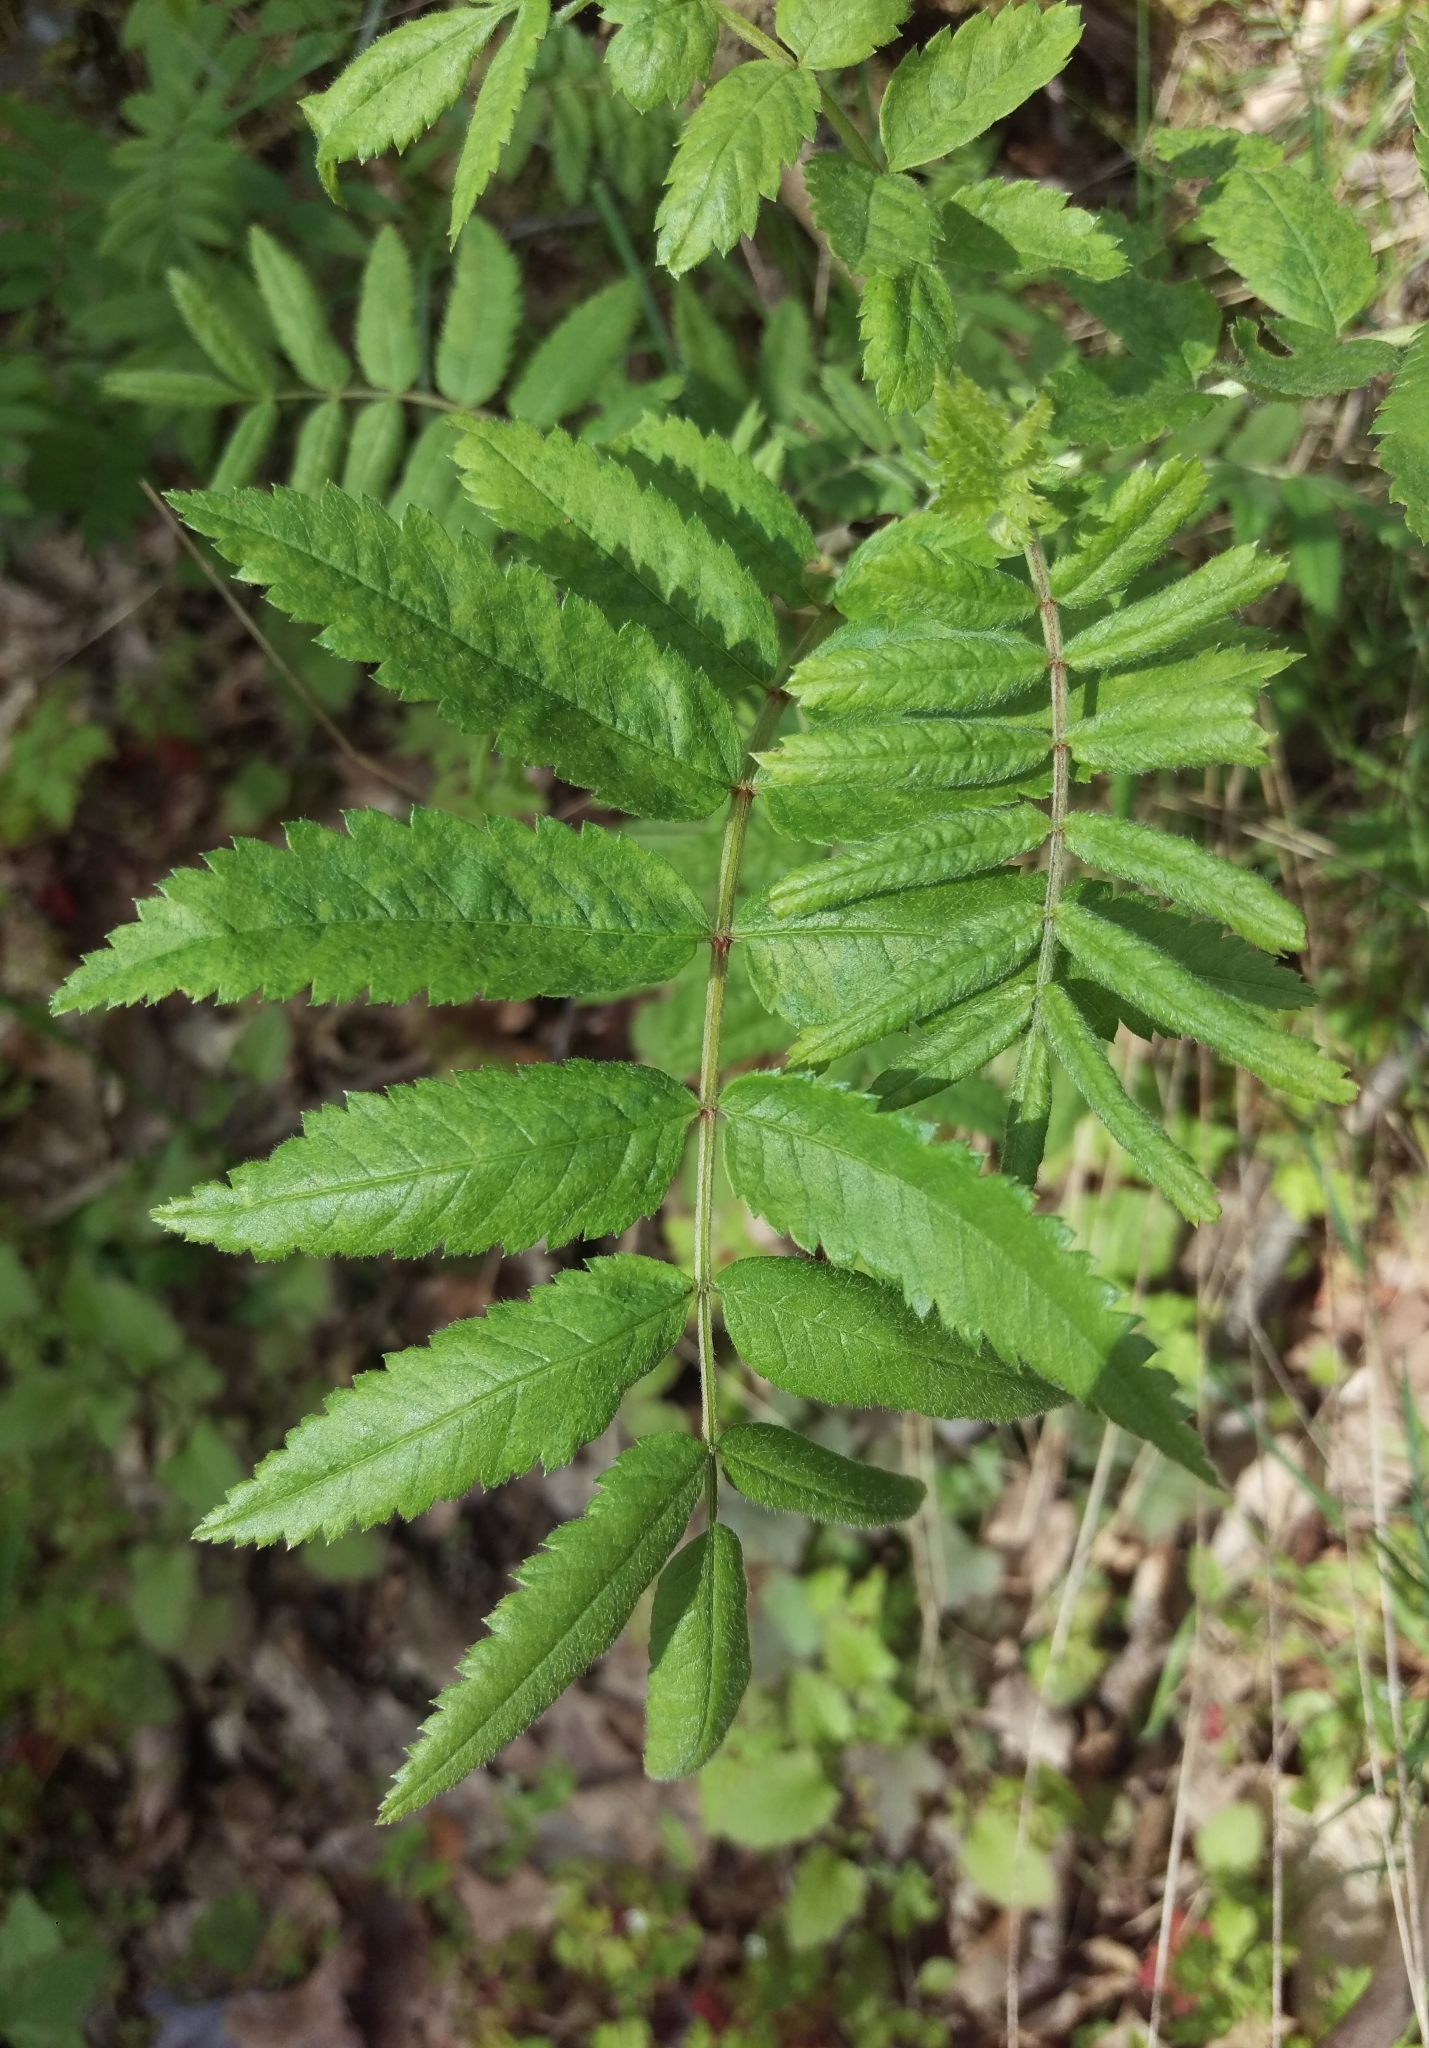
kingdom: Plantae
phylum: Tracheophyta
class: Magnoliopsida
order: Rosales
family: Rosaceae
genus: Sorbus
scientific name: Sorbus aucuparia
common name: Rowan
